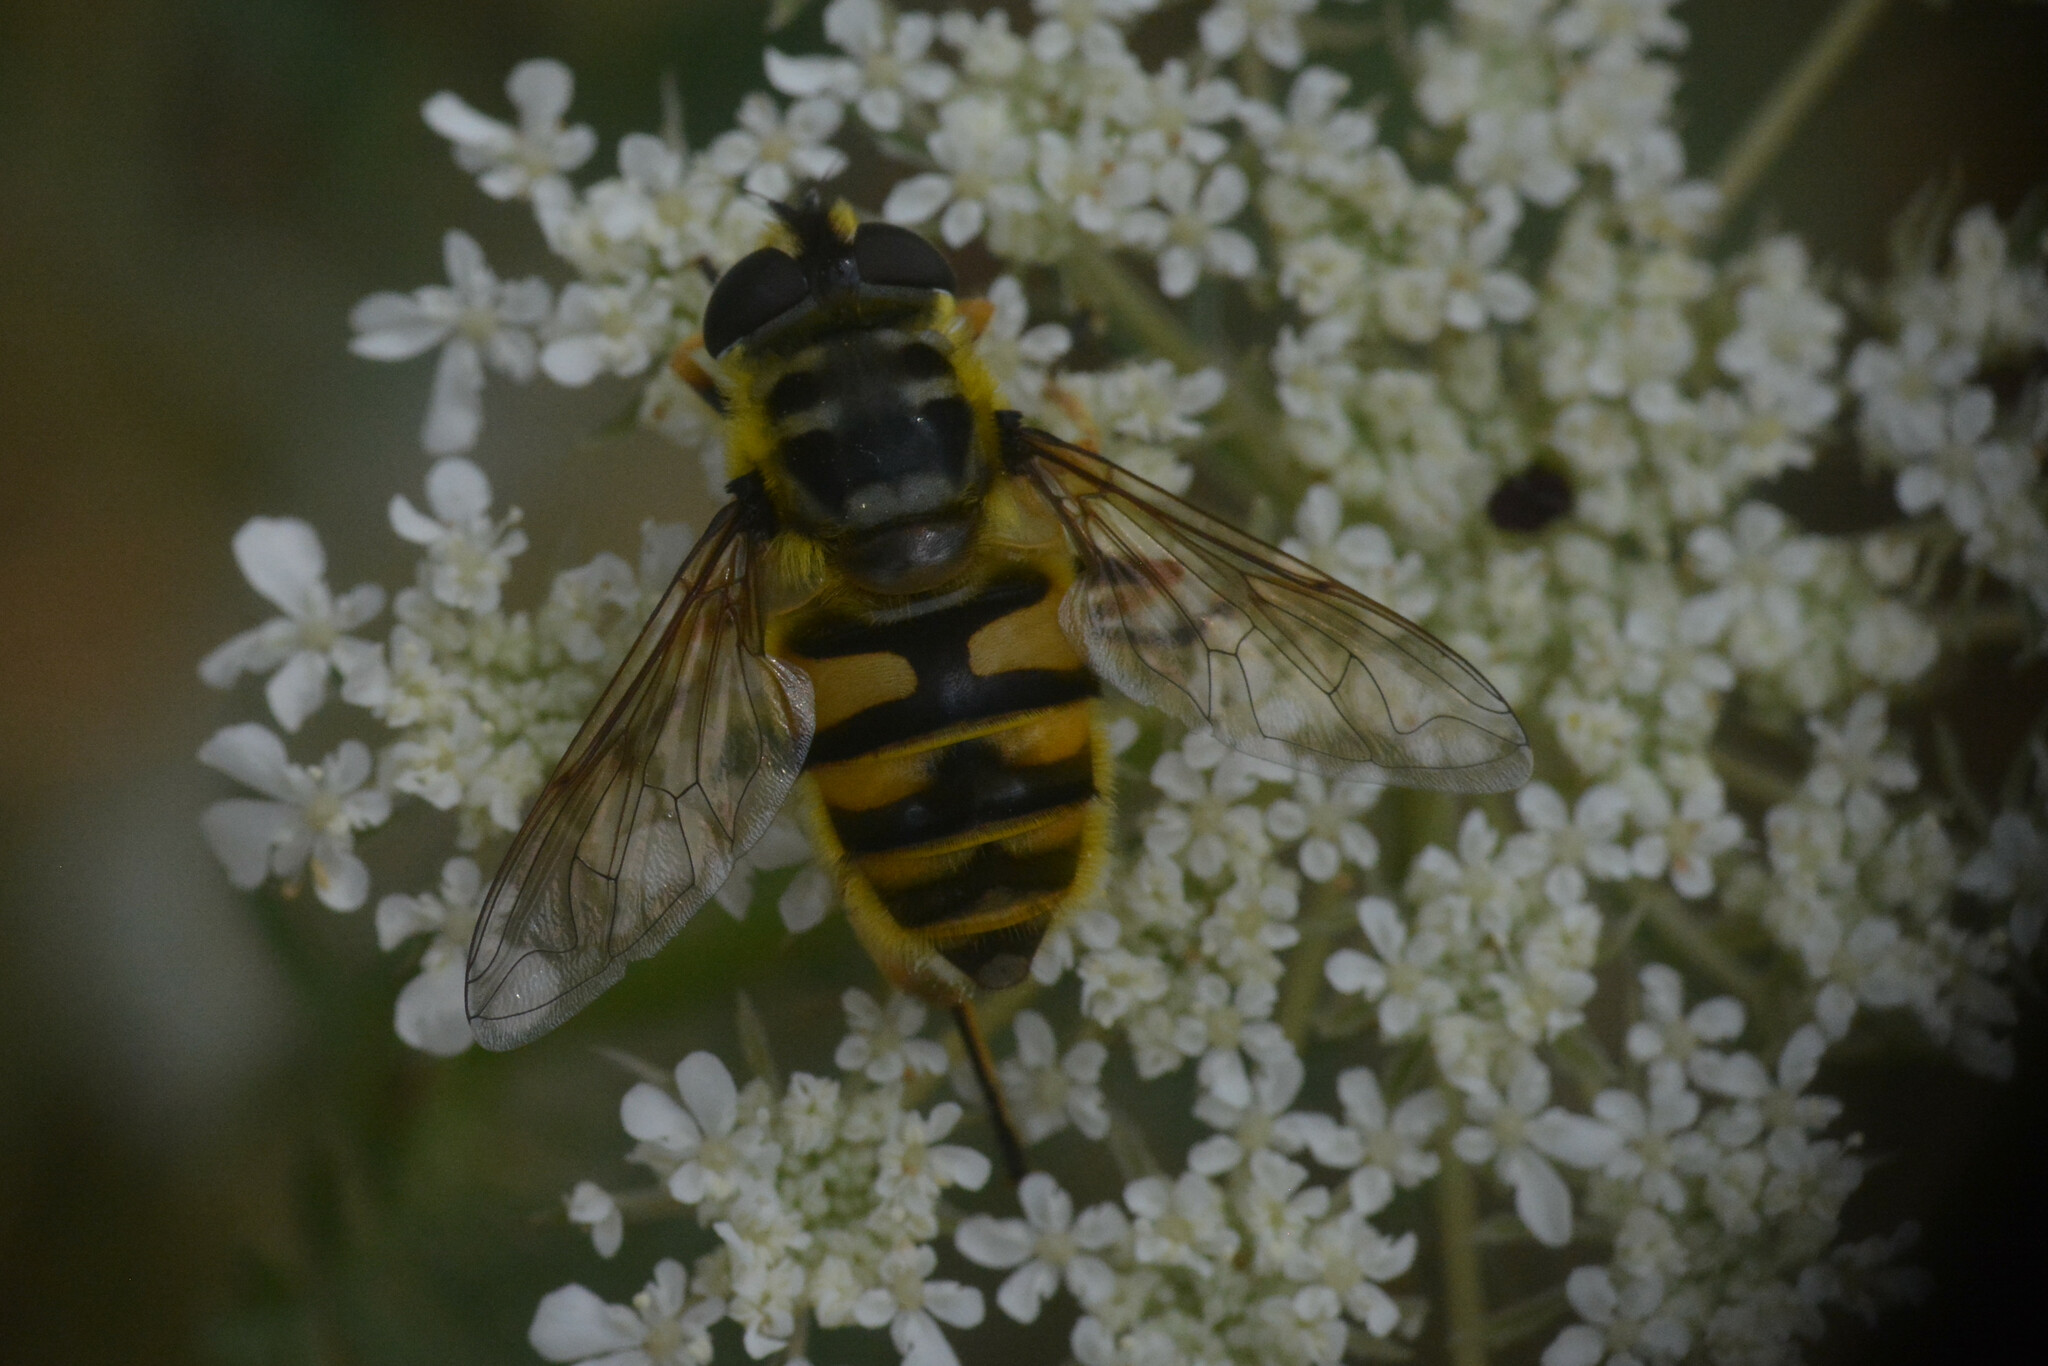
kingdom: Animalia
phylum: Arthropoda
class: Insecta
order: Diptera
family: Syrphidae
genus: Myathropa
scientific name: Myathropa florea
